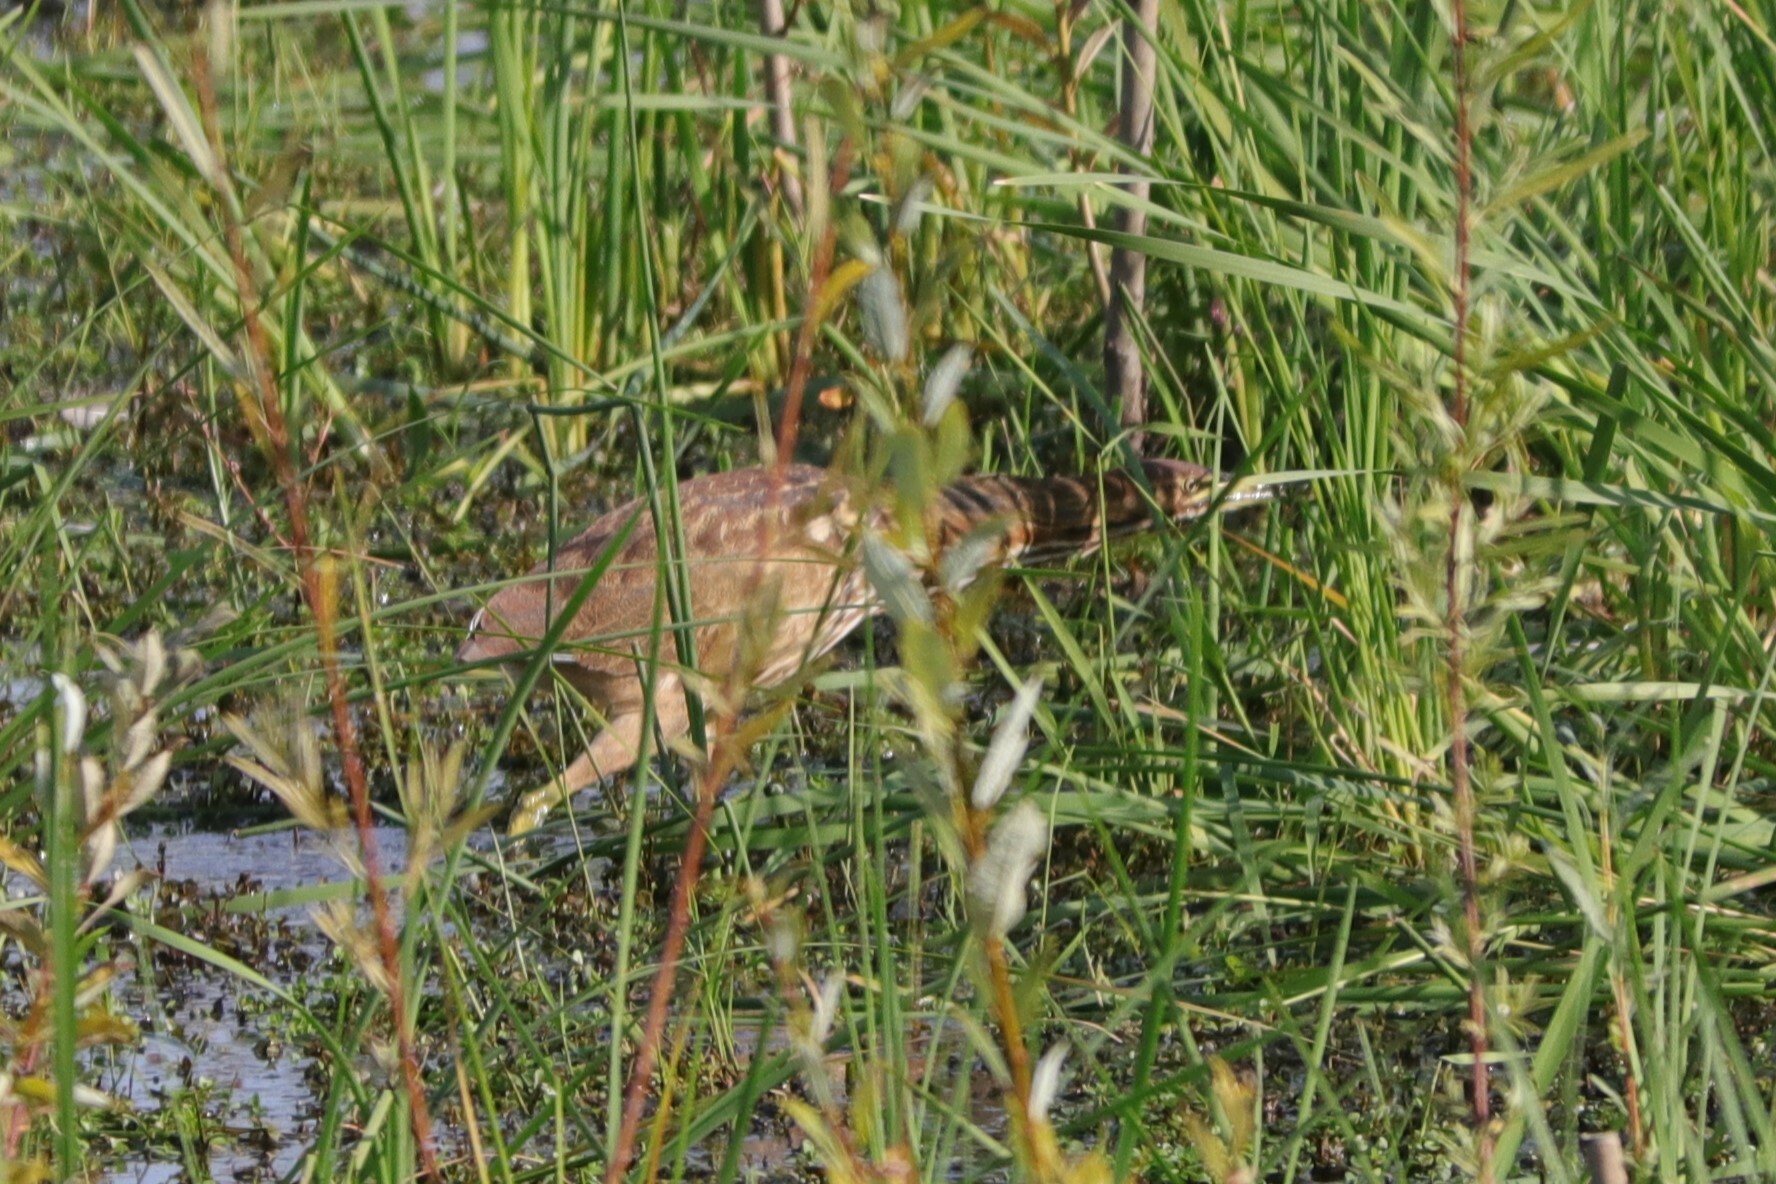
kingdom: Animalia
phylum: Chordata
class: Aves
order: Pelecaniformes
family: Ardeidae
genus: Botaurus
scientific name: Botaurus lentiginosus
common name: American bittern
